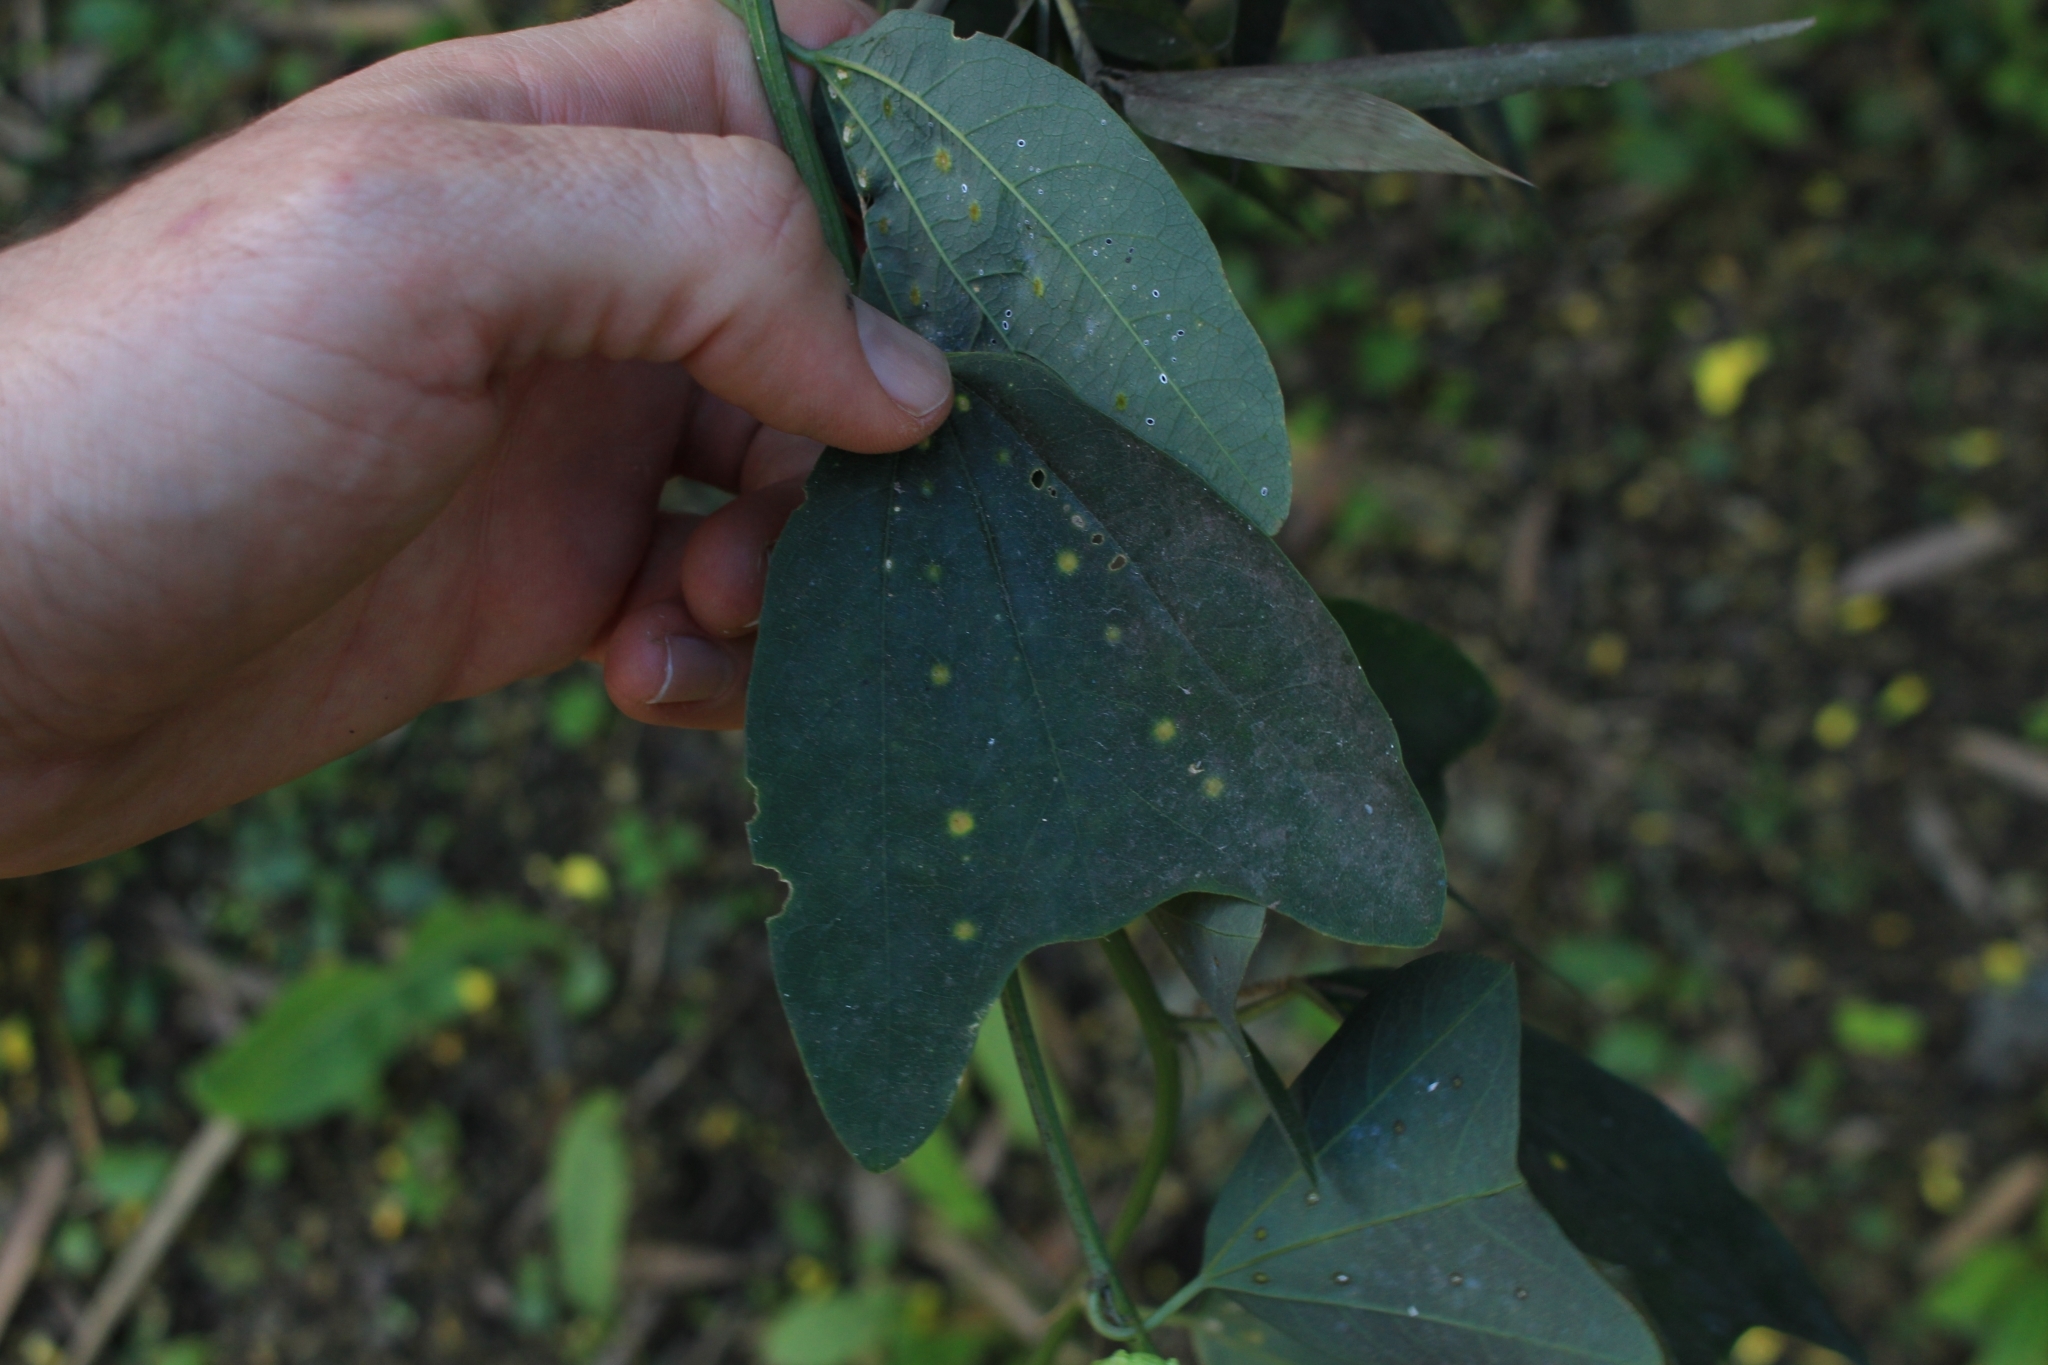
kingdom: Plantae
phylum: Tracheophyta
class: Magnoliopsida
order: Malpighiales
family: Passifloraceae
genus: Passiflora
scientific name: Passiflora biflora
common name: Twoflower passionflower
